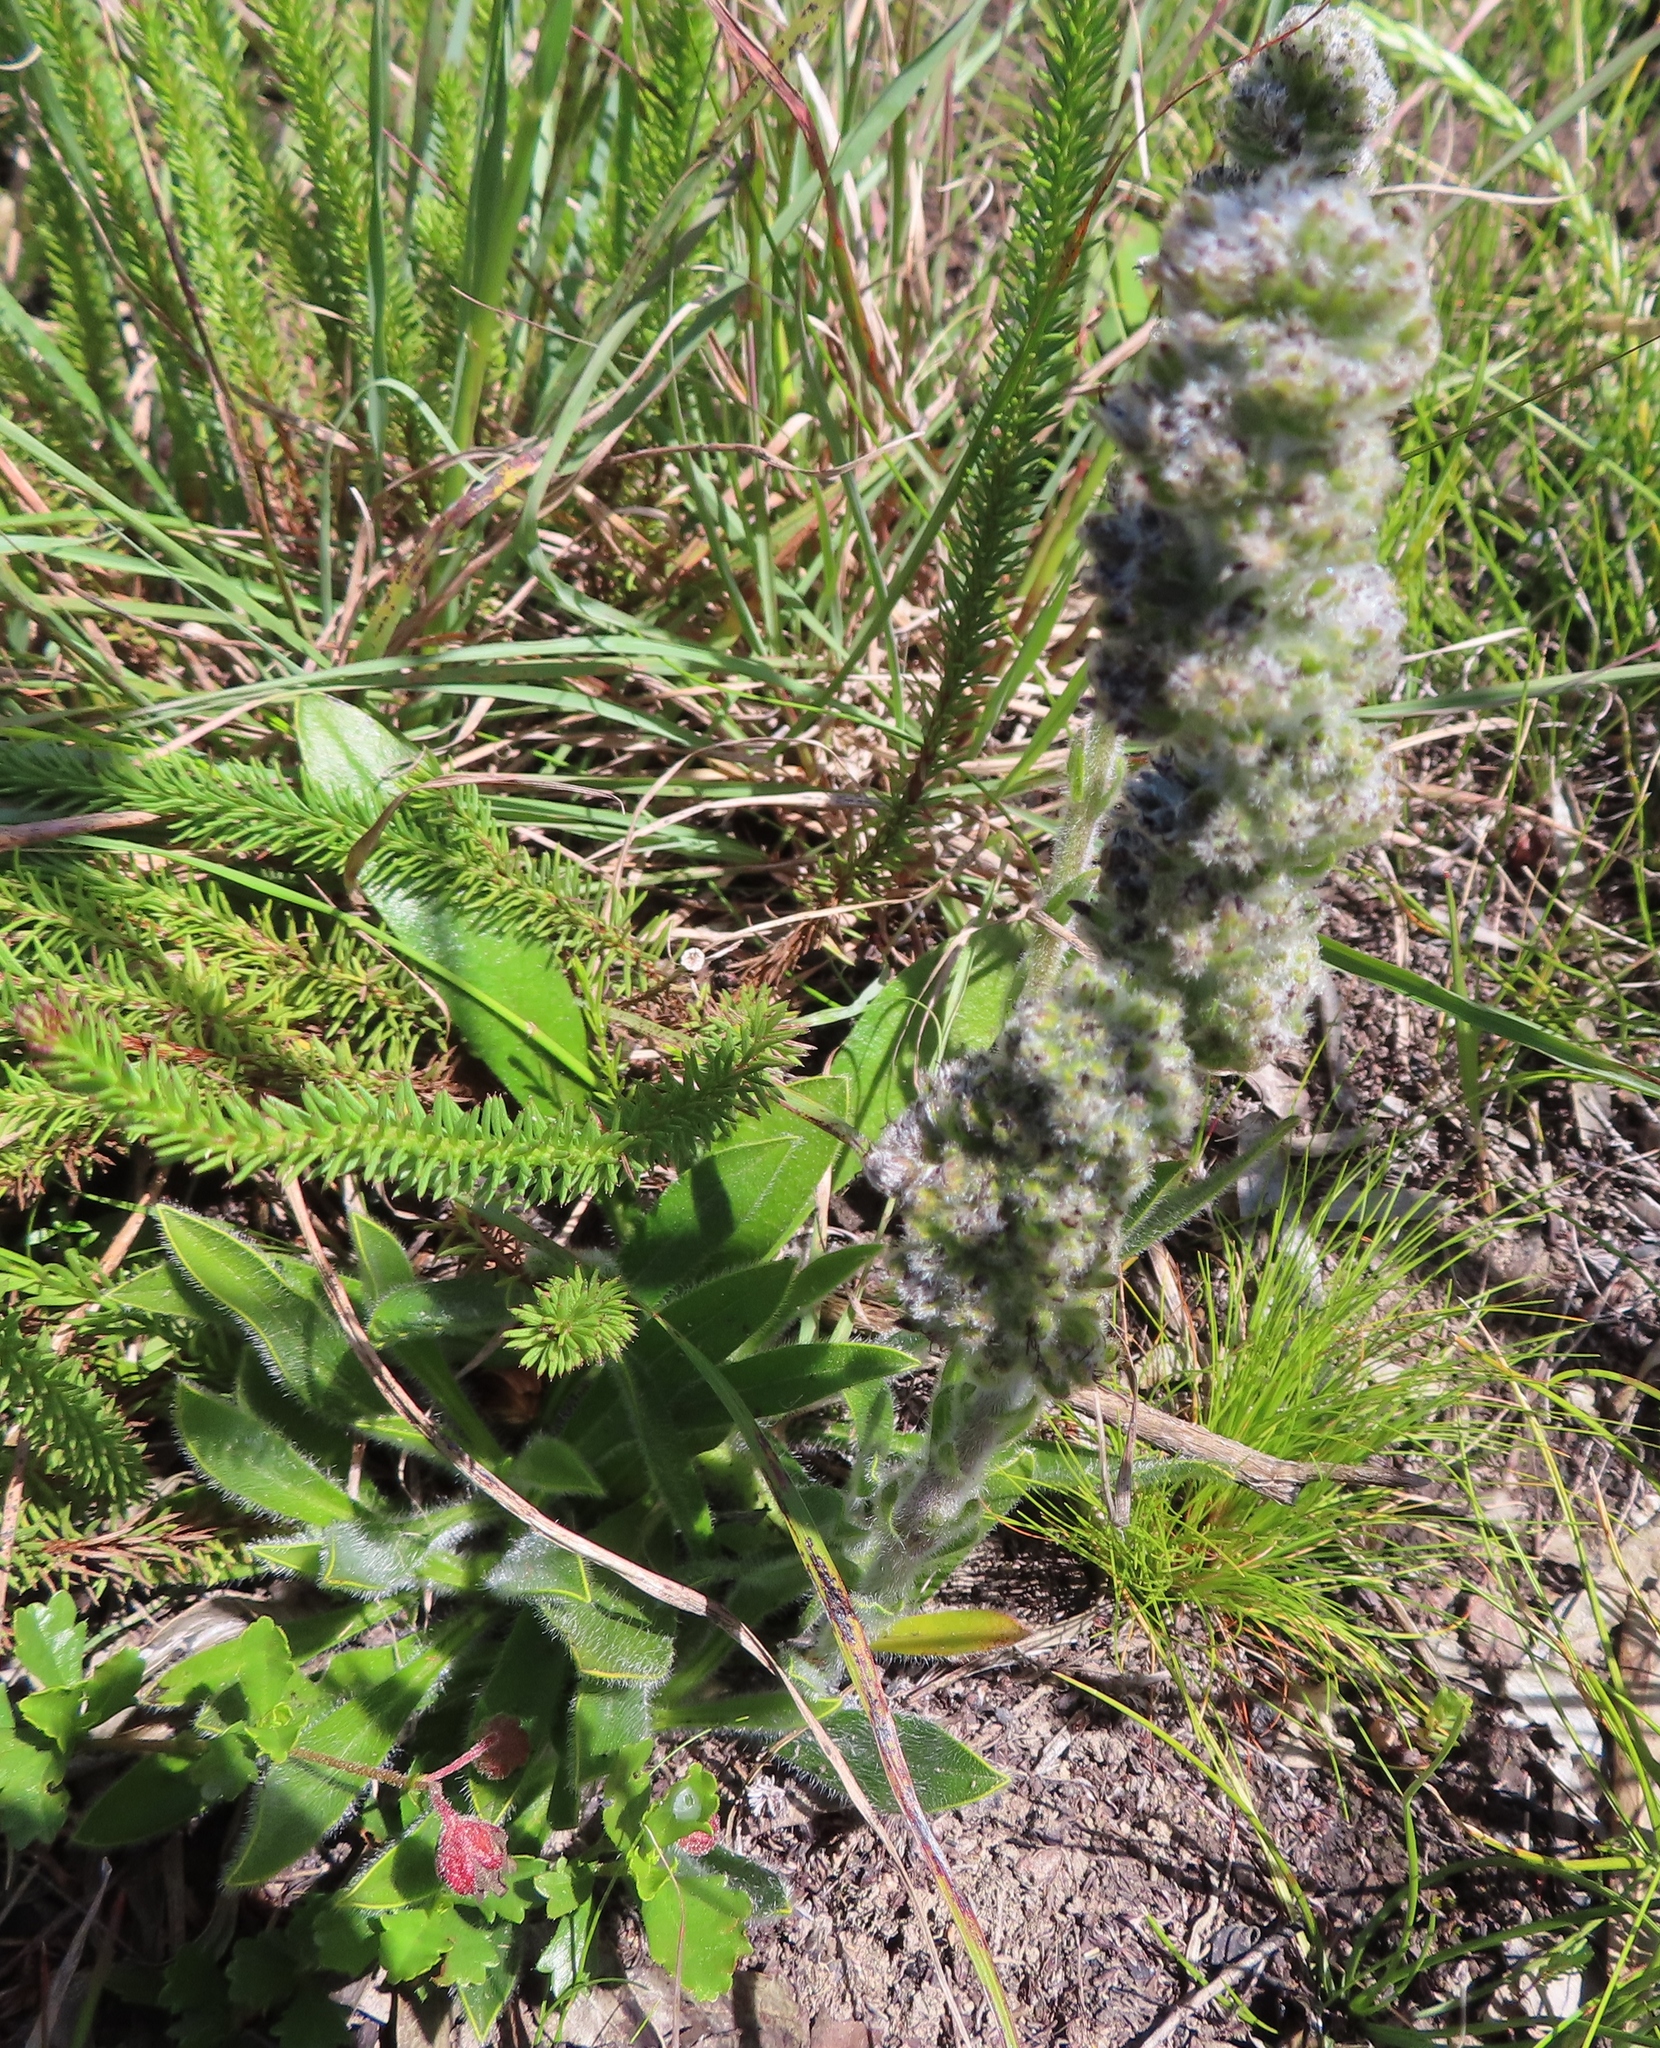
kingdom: Plantae
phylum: Tracheophyta
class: Magnoliopsida
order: Boraginales
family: Boraginaceae
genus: Lobostemon
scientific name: Lobostemon ecklonianus
